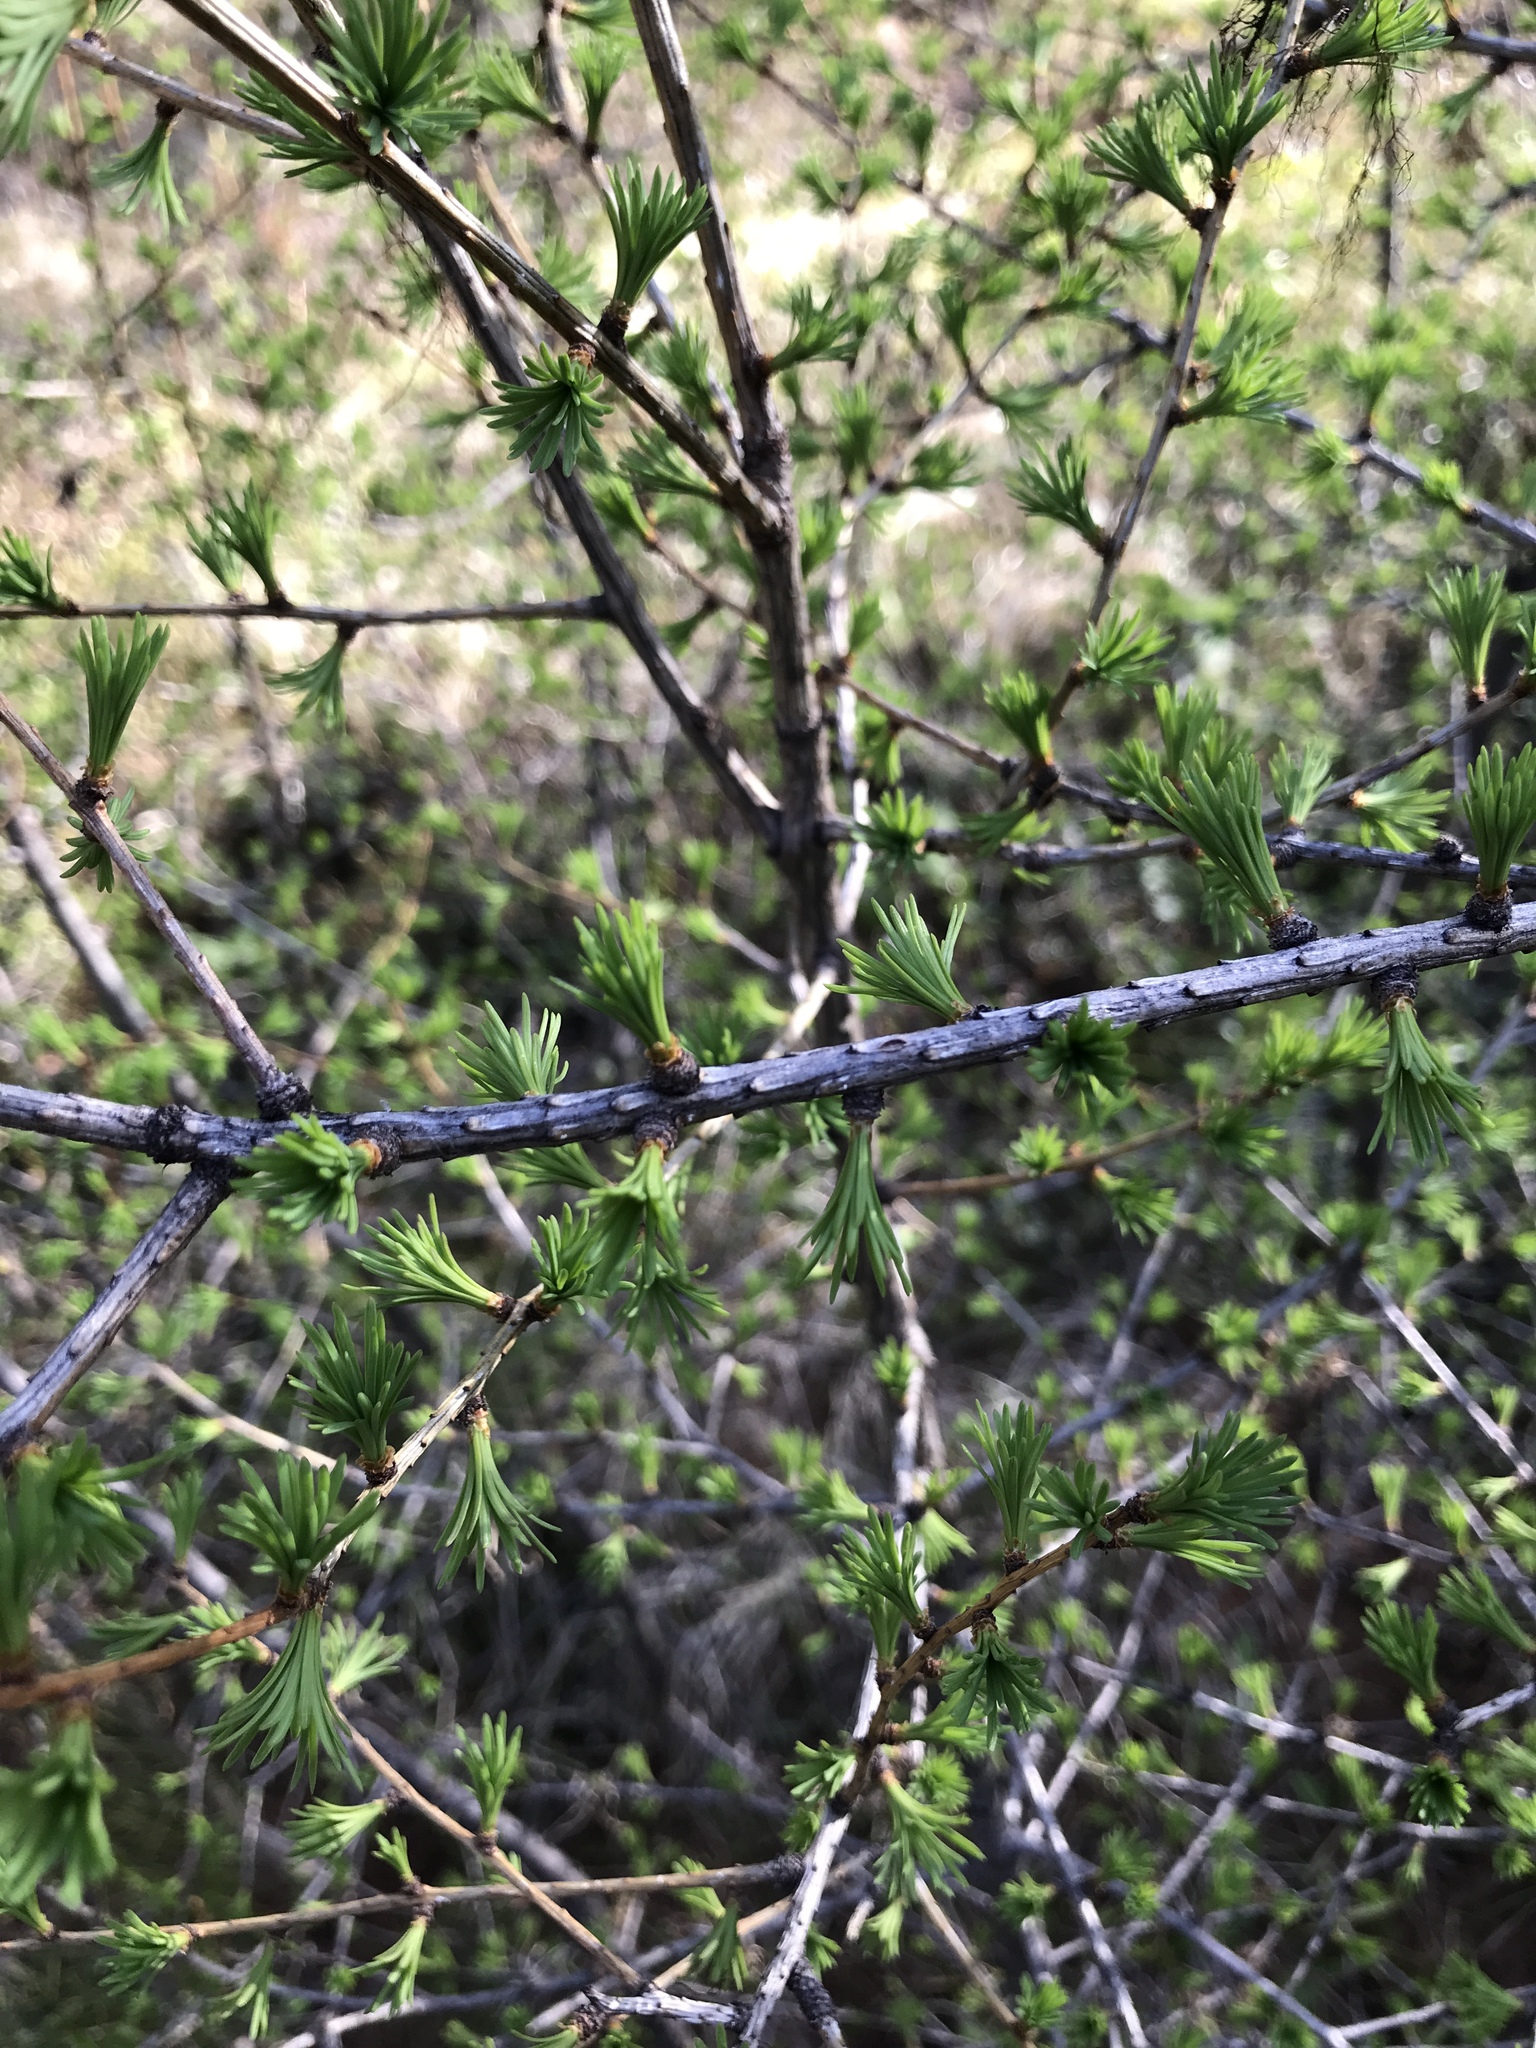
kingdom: Plantae
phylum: Tracheophyta
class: Pinopsida
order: Pinales
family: Pinaceae
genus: Larix
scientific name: Larix occidentalis
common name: Western larch
